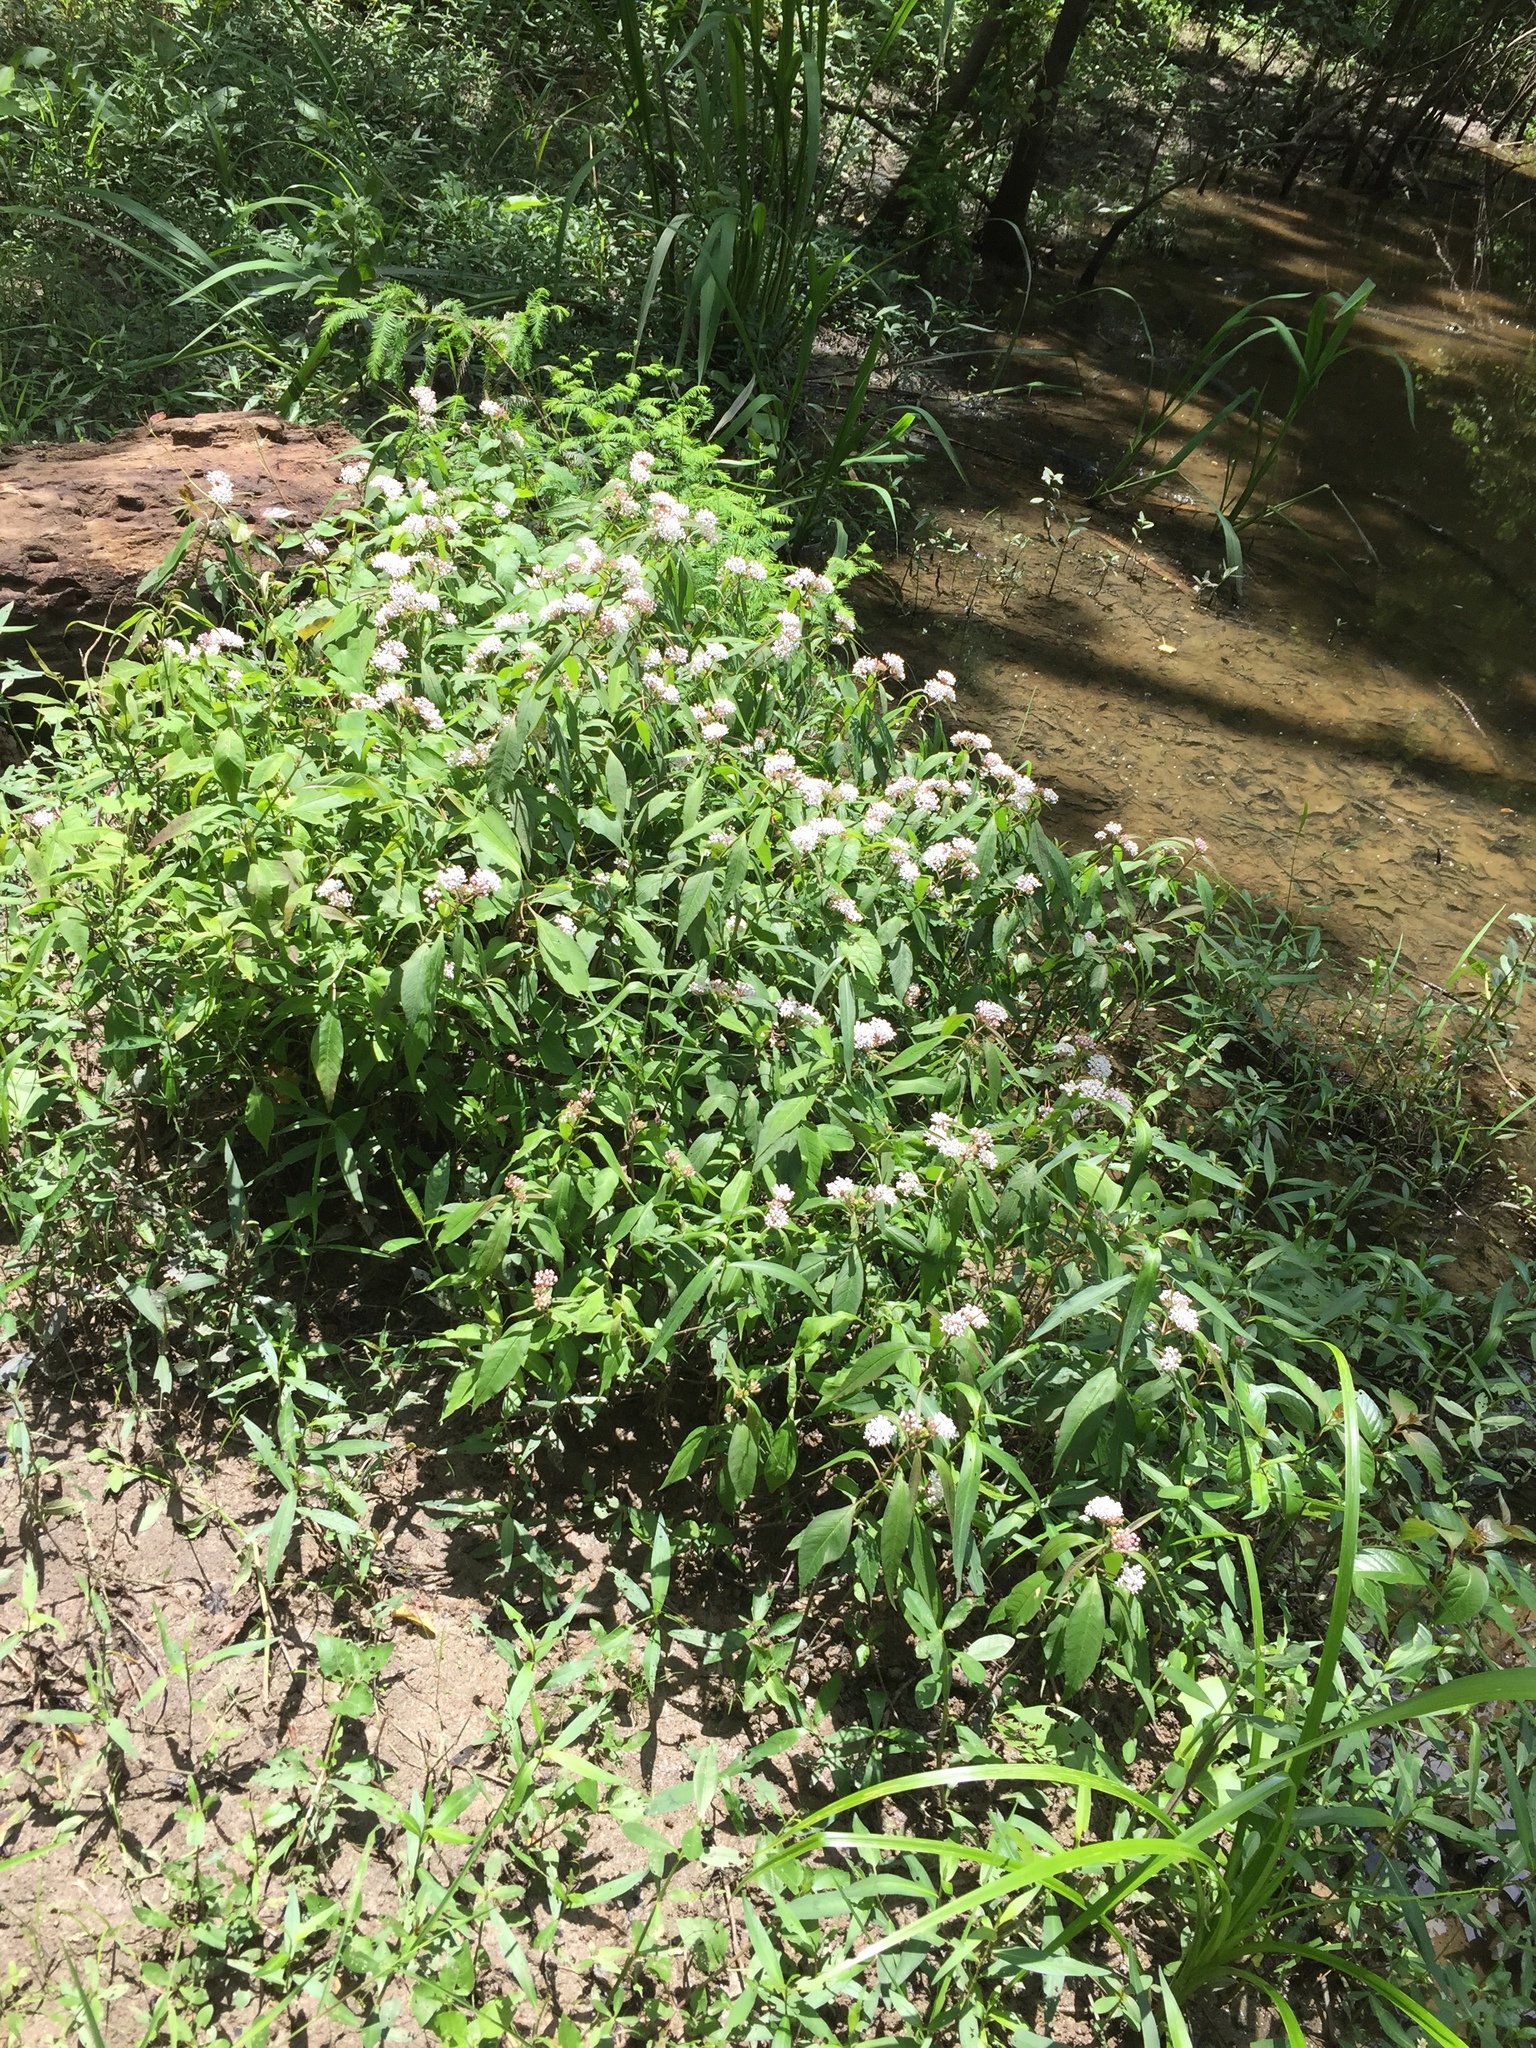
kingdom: Plantae
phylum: Tracheophyta
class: Magnoliopsida
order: Gentianales
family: Apocynaceae
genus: Asclepias
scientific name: Asclepias perennis
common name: Smooth-seed milkweed
